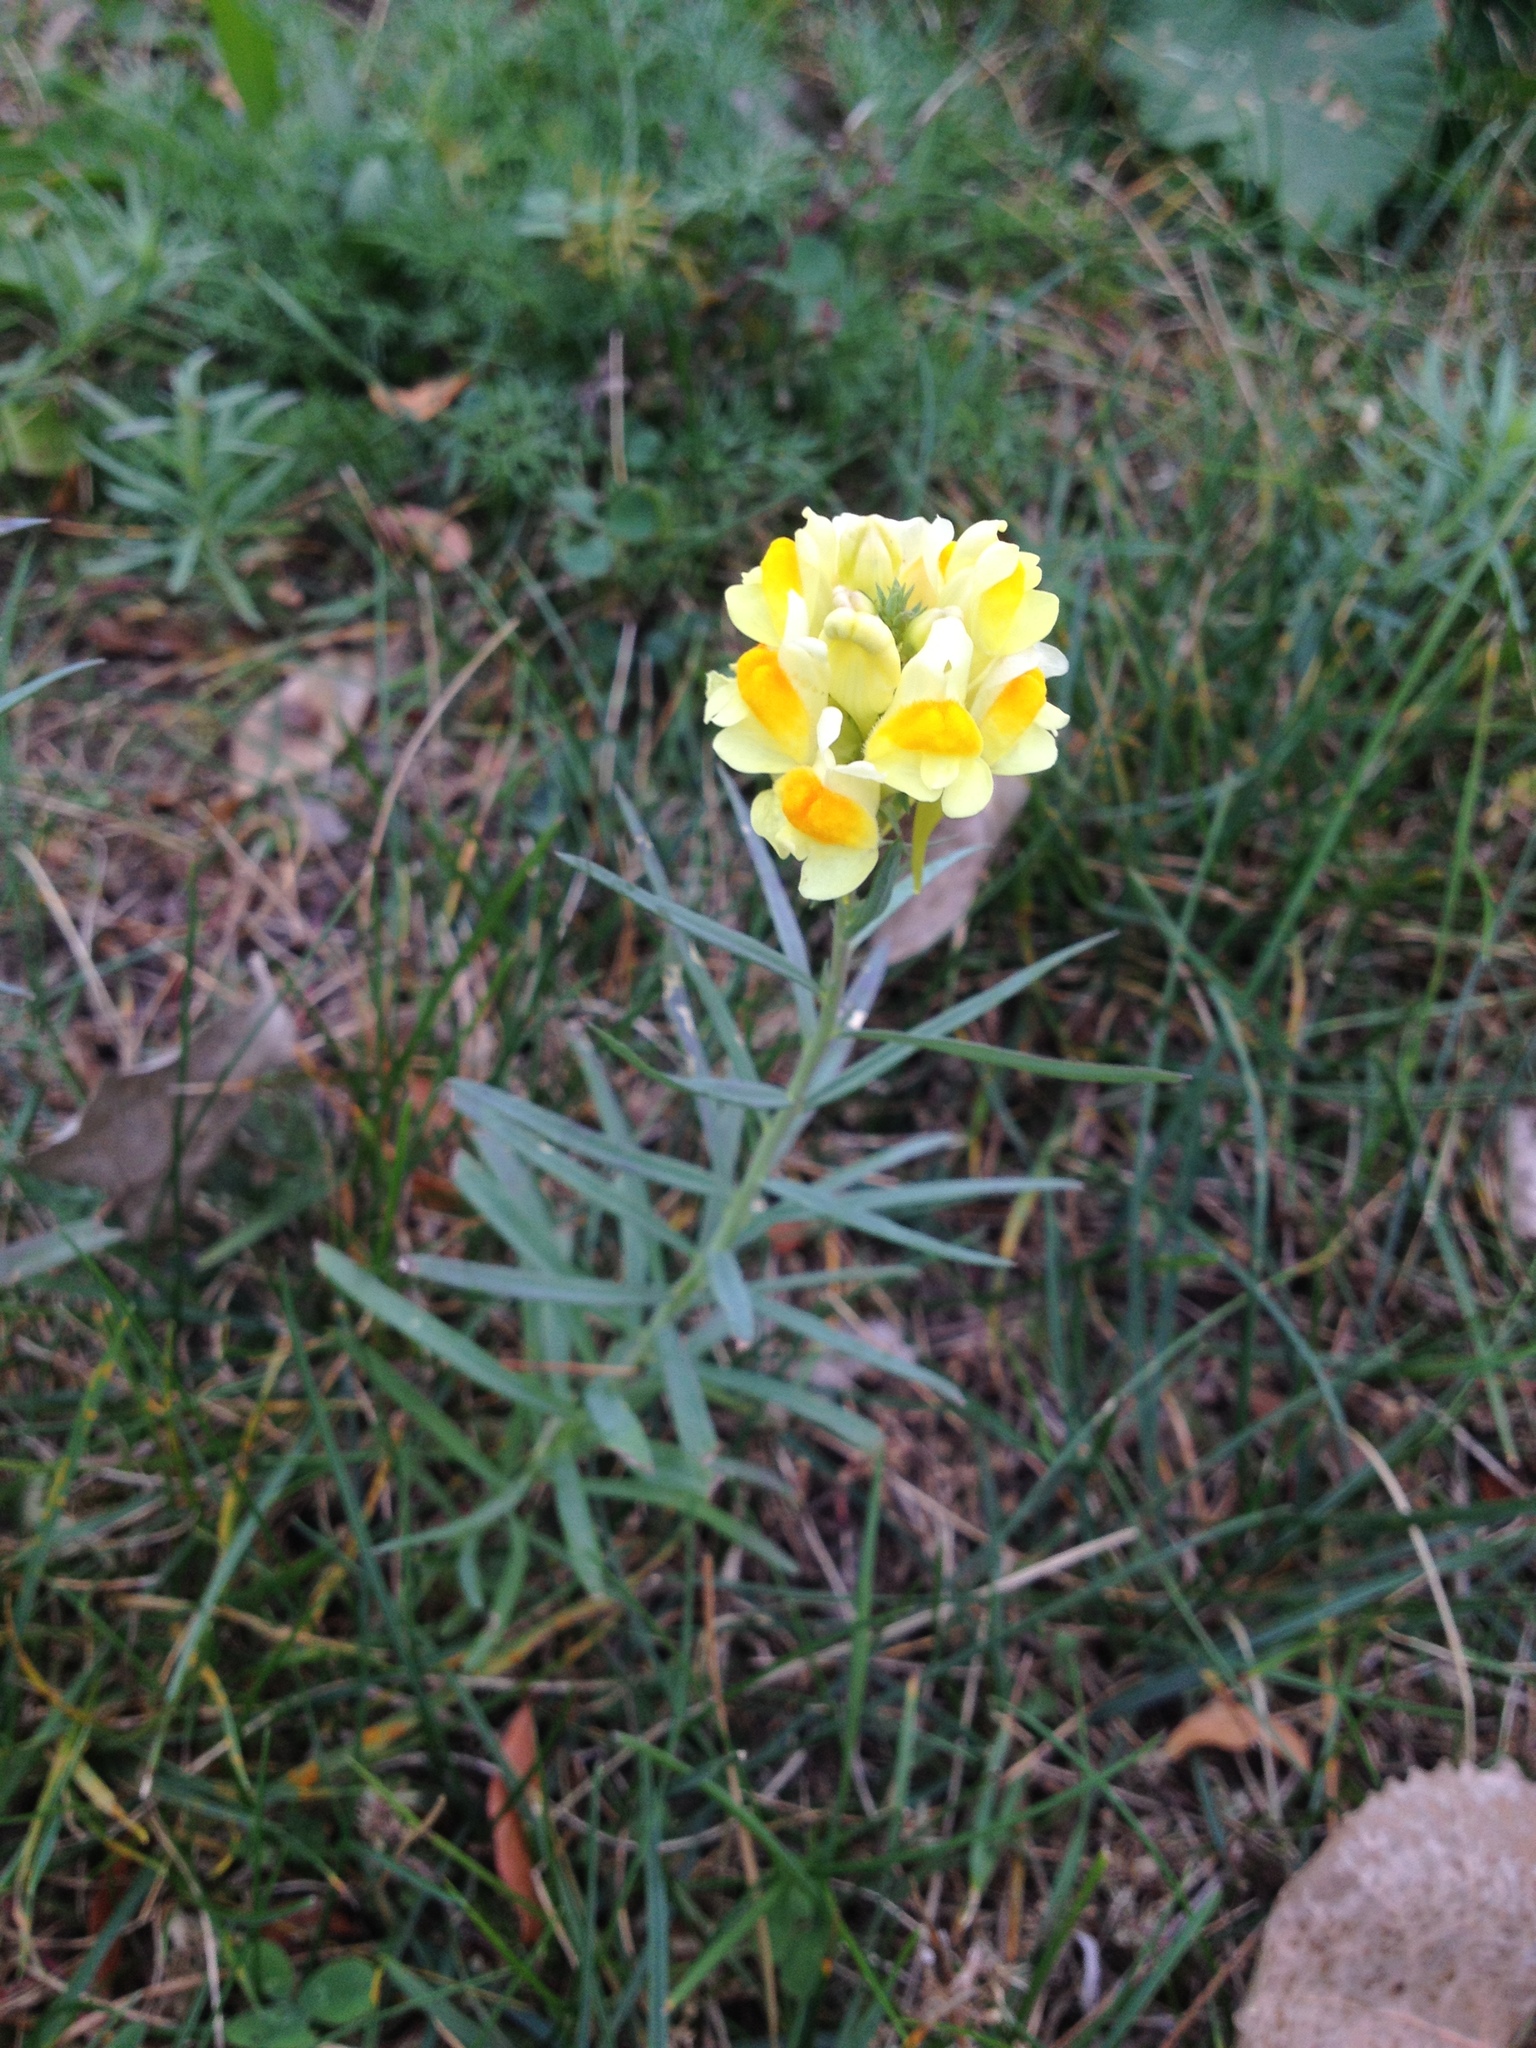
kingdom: Plantae
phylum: Tracheophyta
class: Magnoliopsida
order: Lamiales
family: Plantaginaceae
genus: Linaria
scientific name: Linaria vulgaris
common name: Butter and eggs
